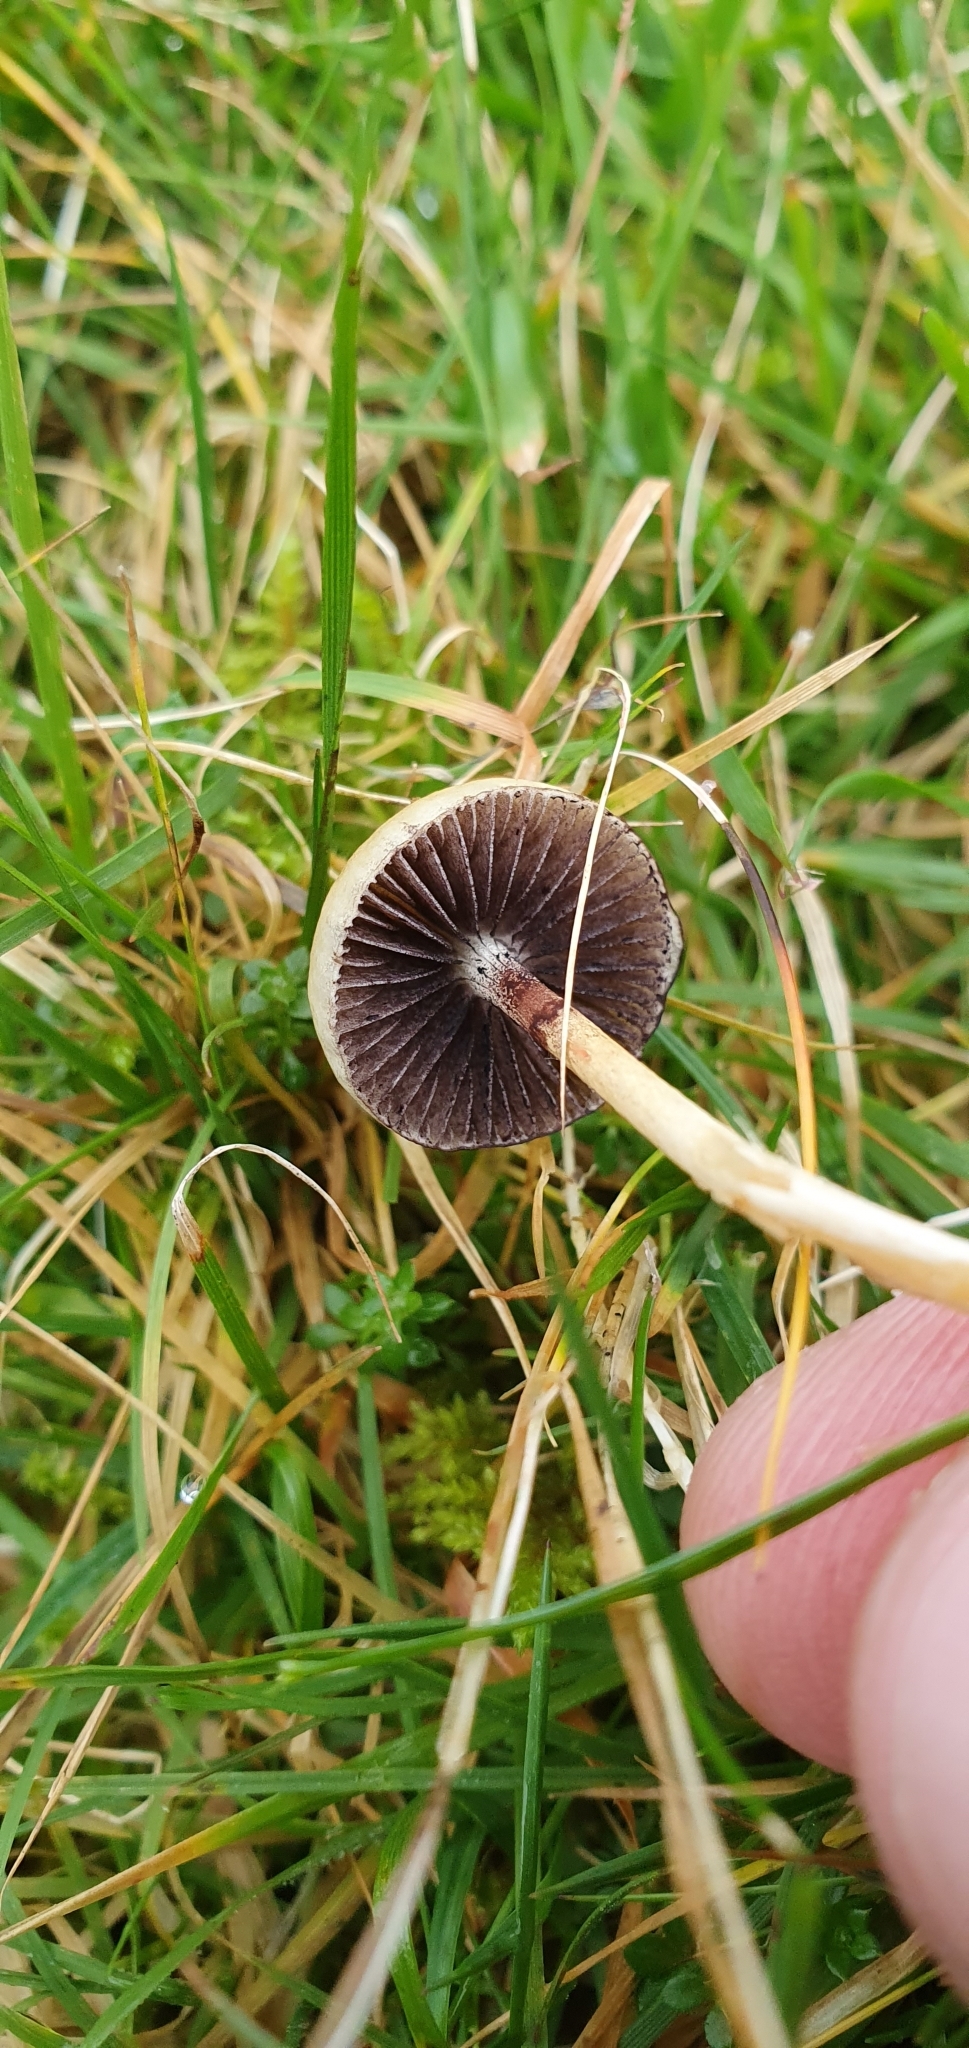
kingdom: Fungi
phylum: Basidiomycota
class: Agaricomycetes
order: Agaricales
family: Strophariaceae
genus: Protostropharia
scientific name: Protostropharia semiglobata
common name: Dung roundhead
